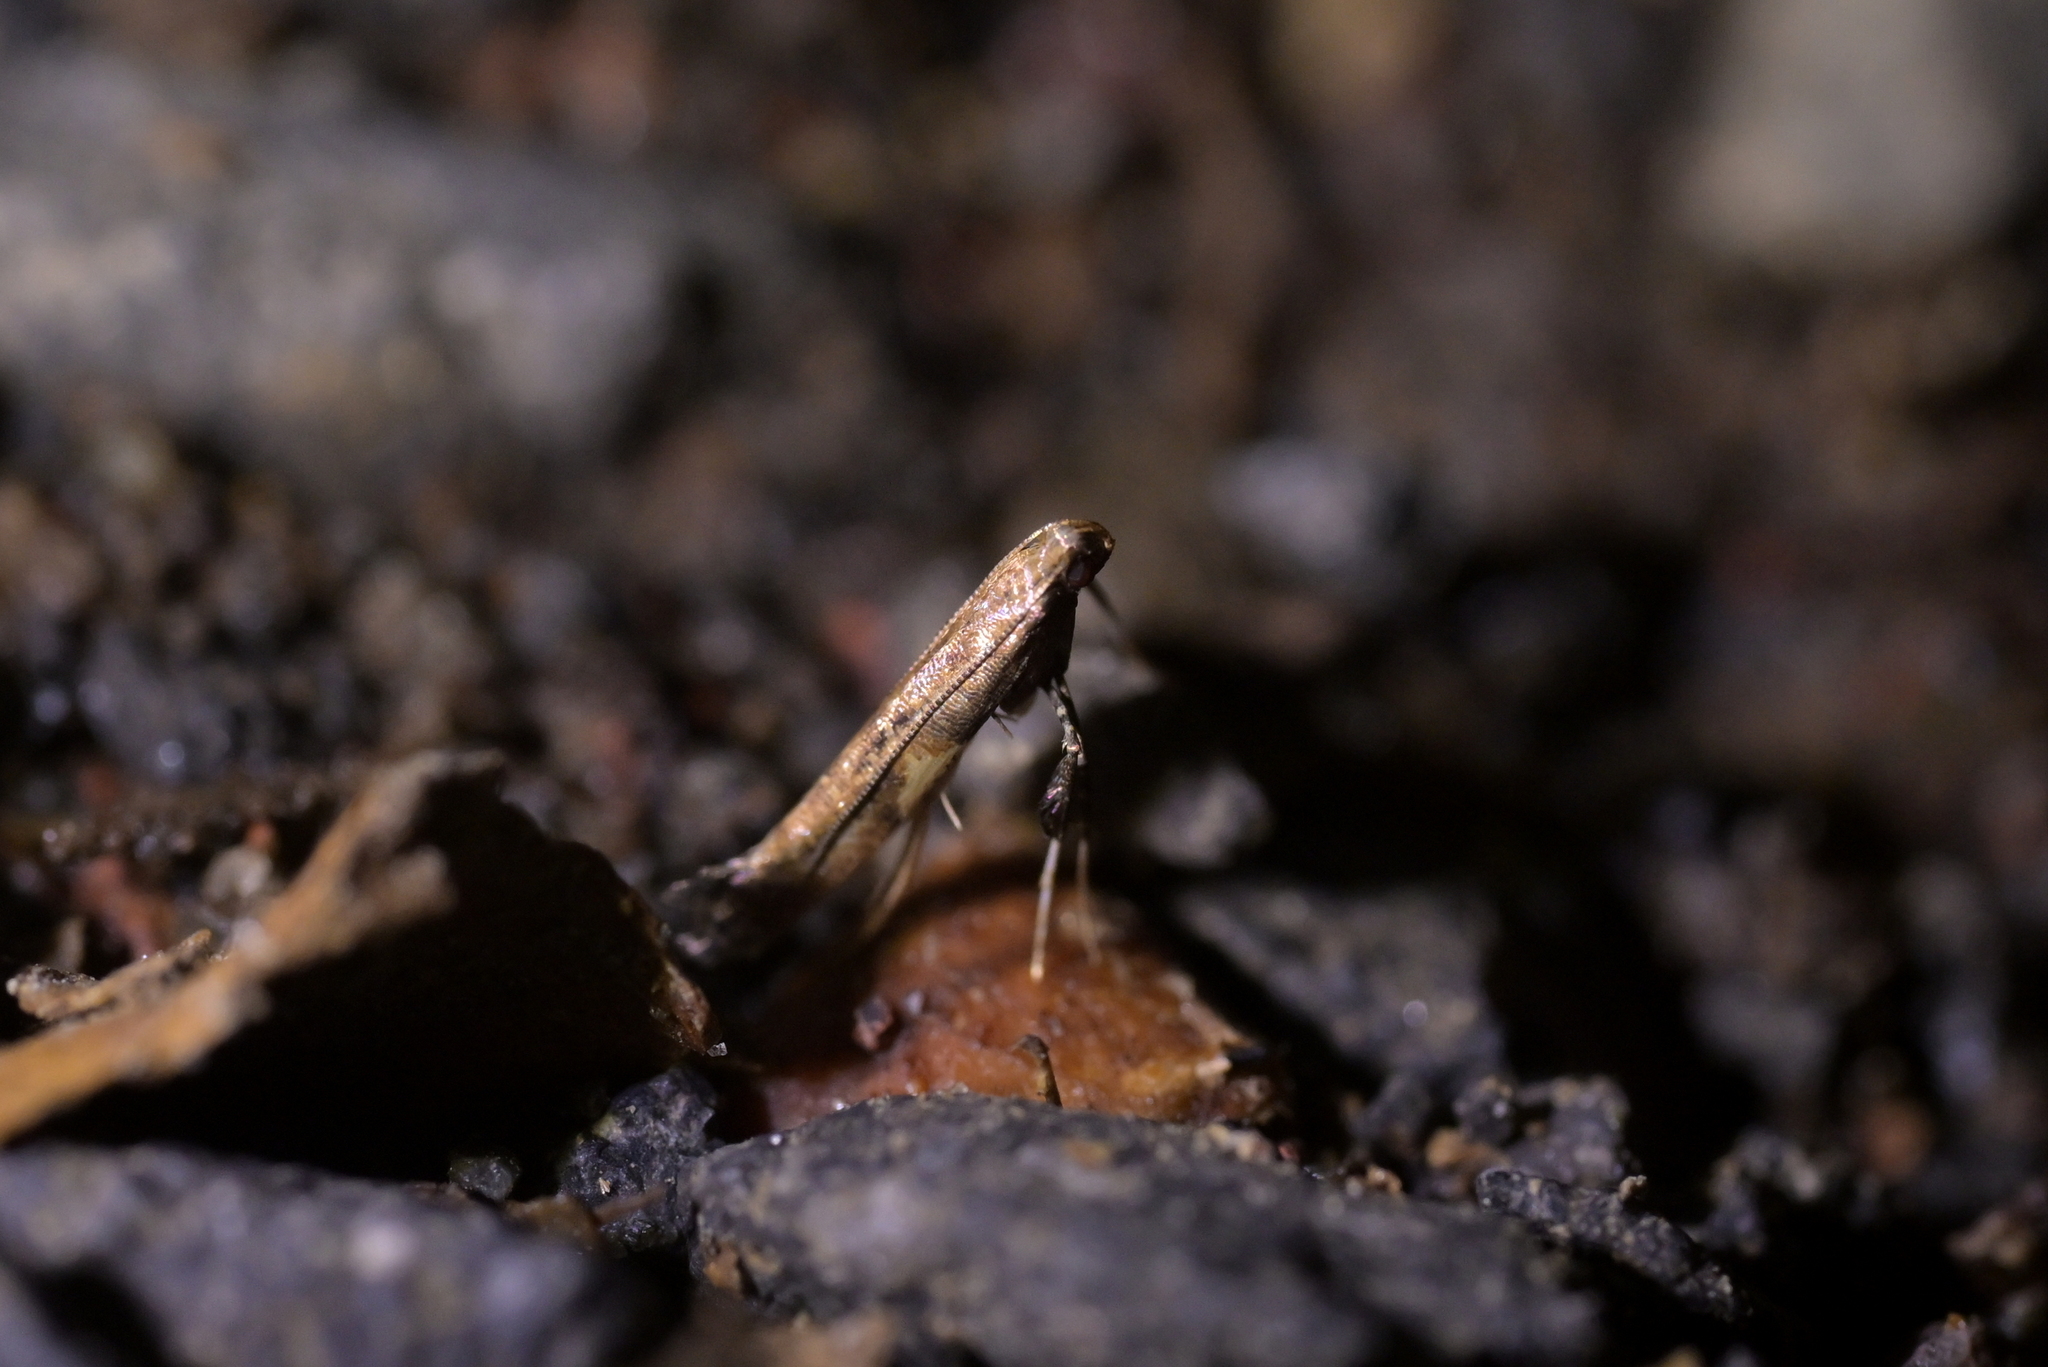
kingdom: Animalia
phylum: Arthropoda
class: Insecta
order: Lepidoptera
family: Gracillariidae
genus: Caloptilia
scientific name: Caloptilia chalcodelta
